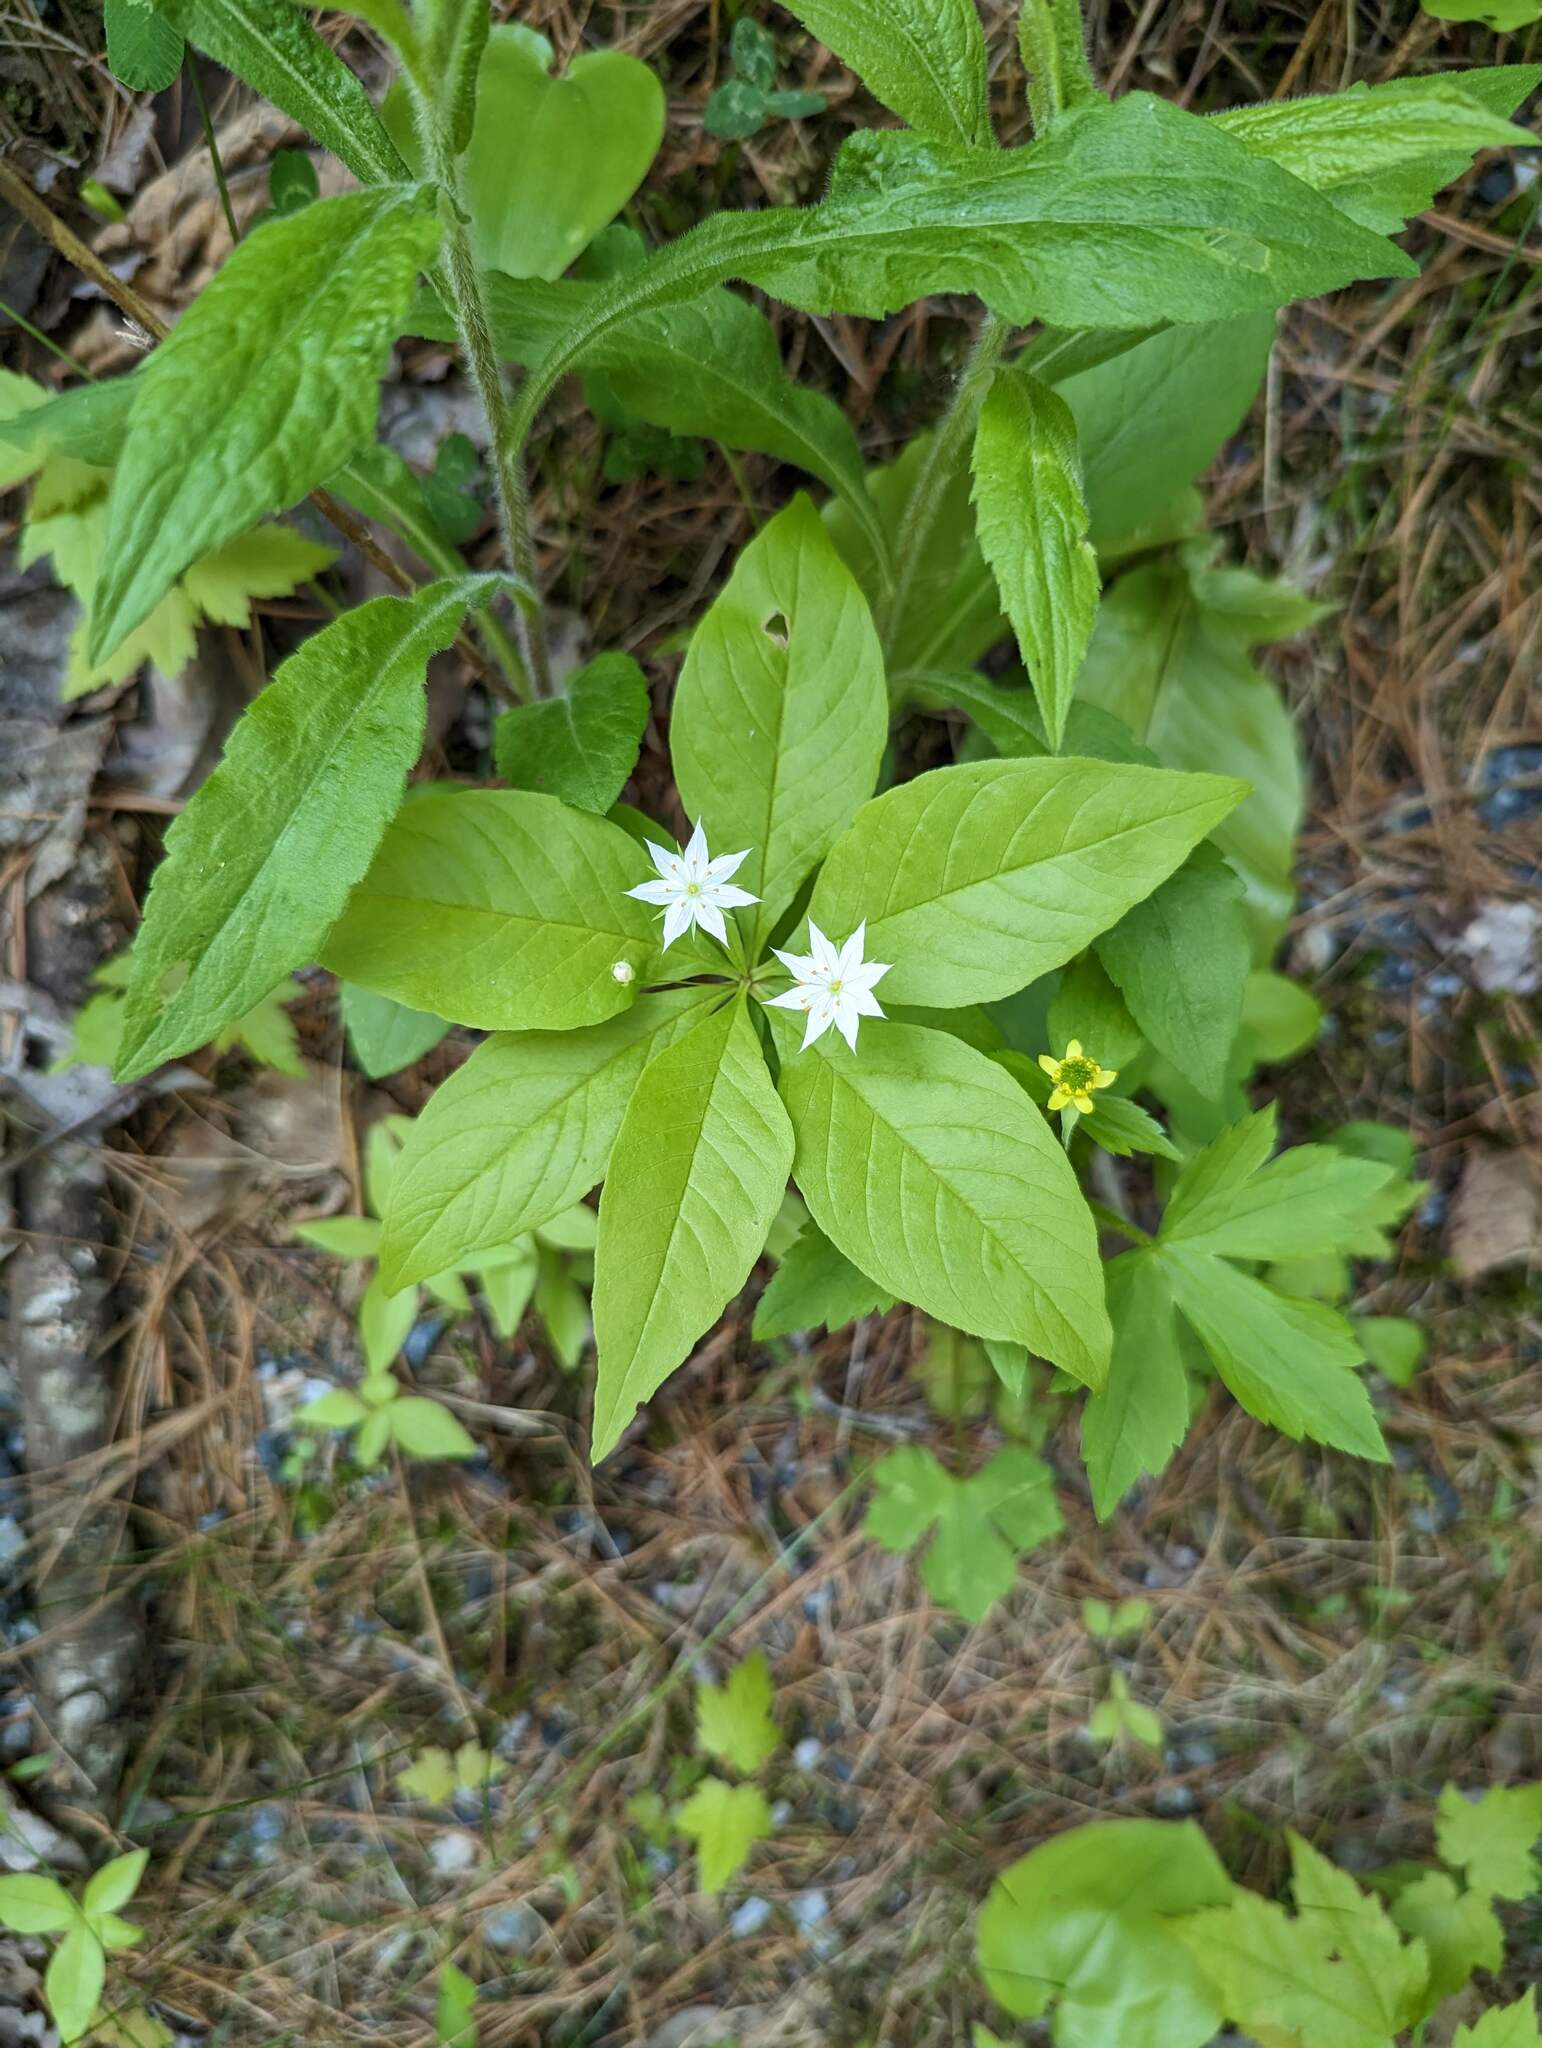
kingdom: Plantae
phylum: Tracheophyta
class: Magnoliopsida
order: Ericales
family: Primulaceae
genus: Lysimachia
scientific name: Lysimachia borealis
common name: American starflower
